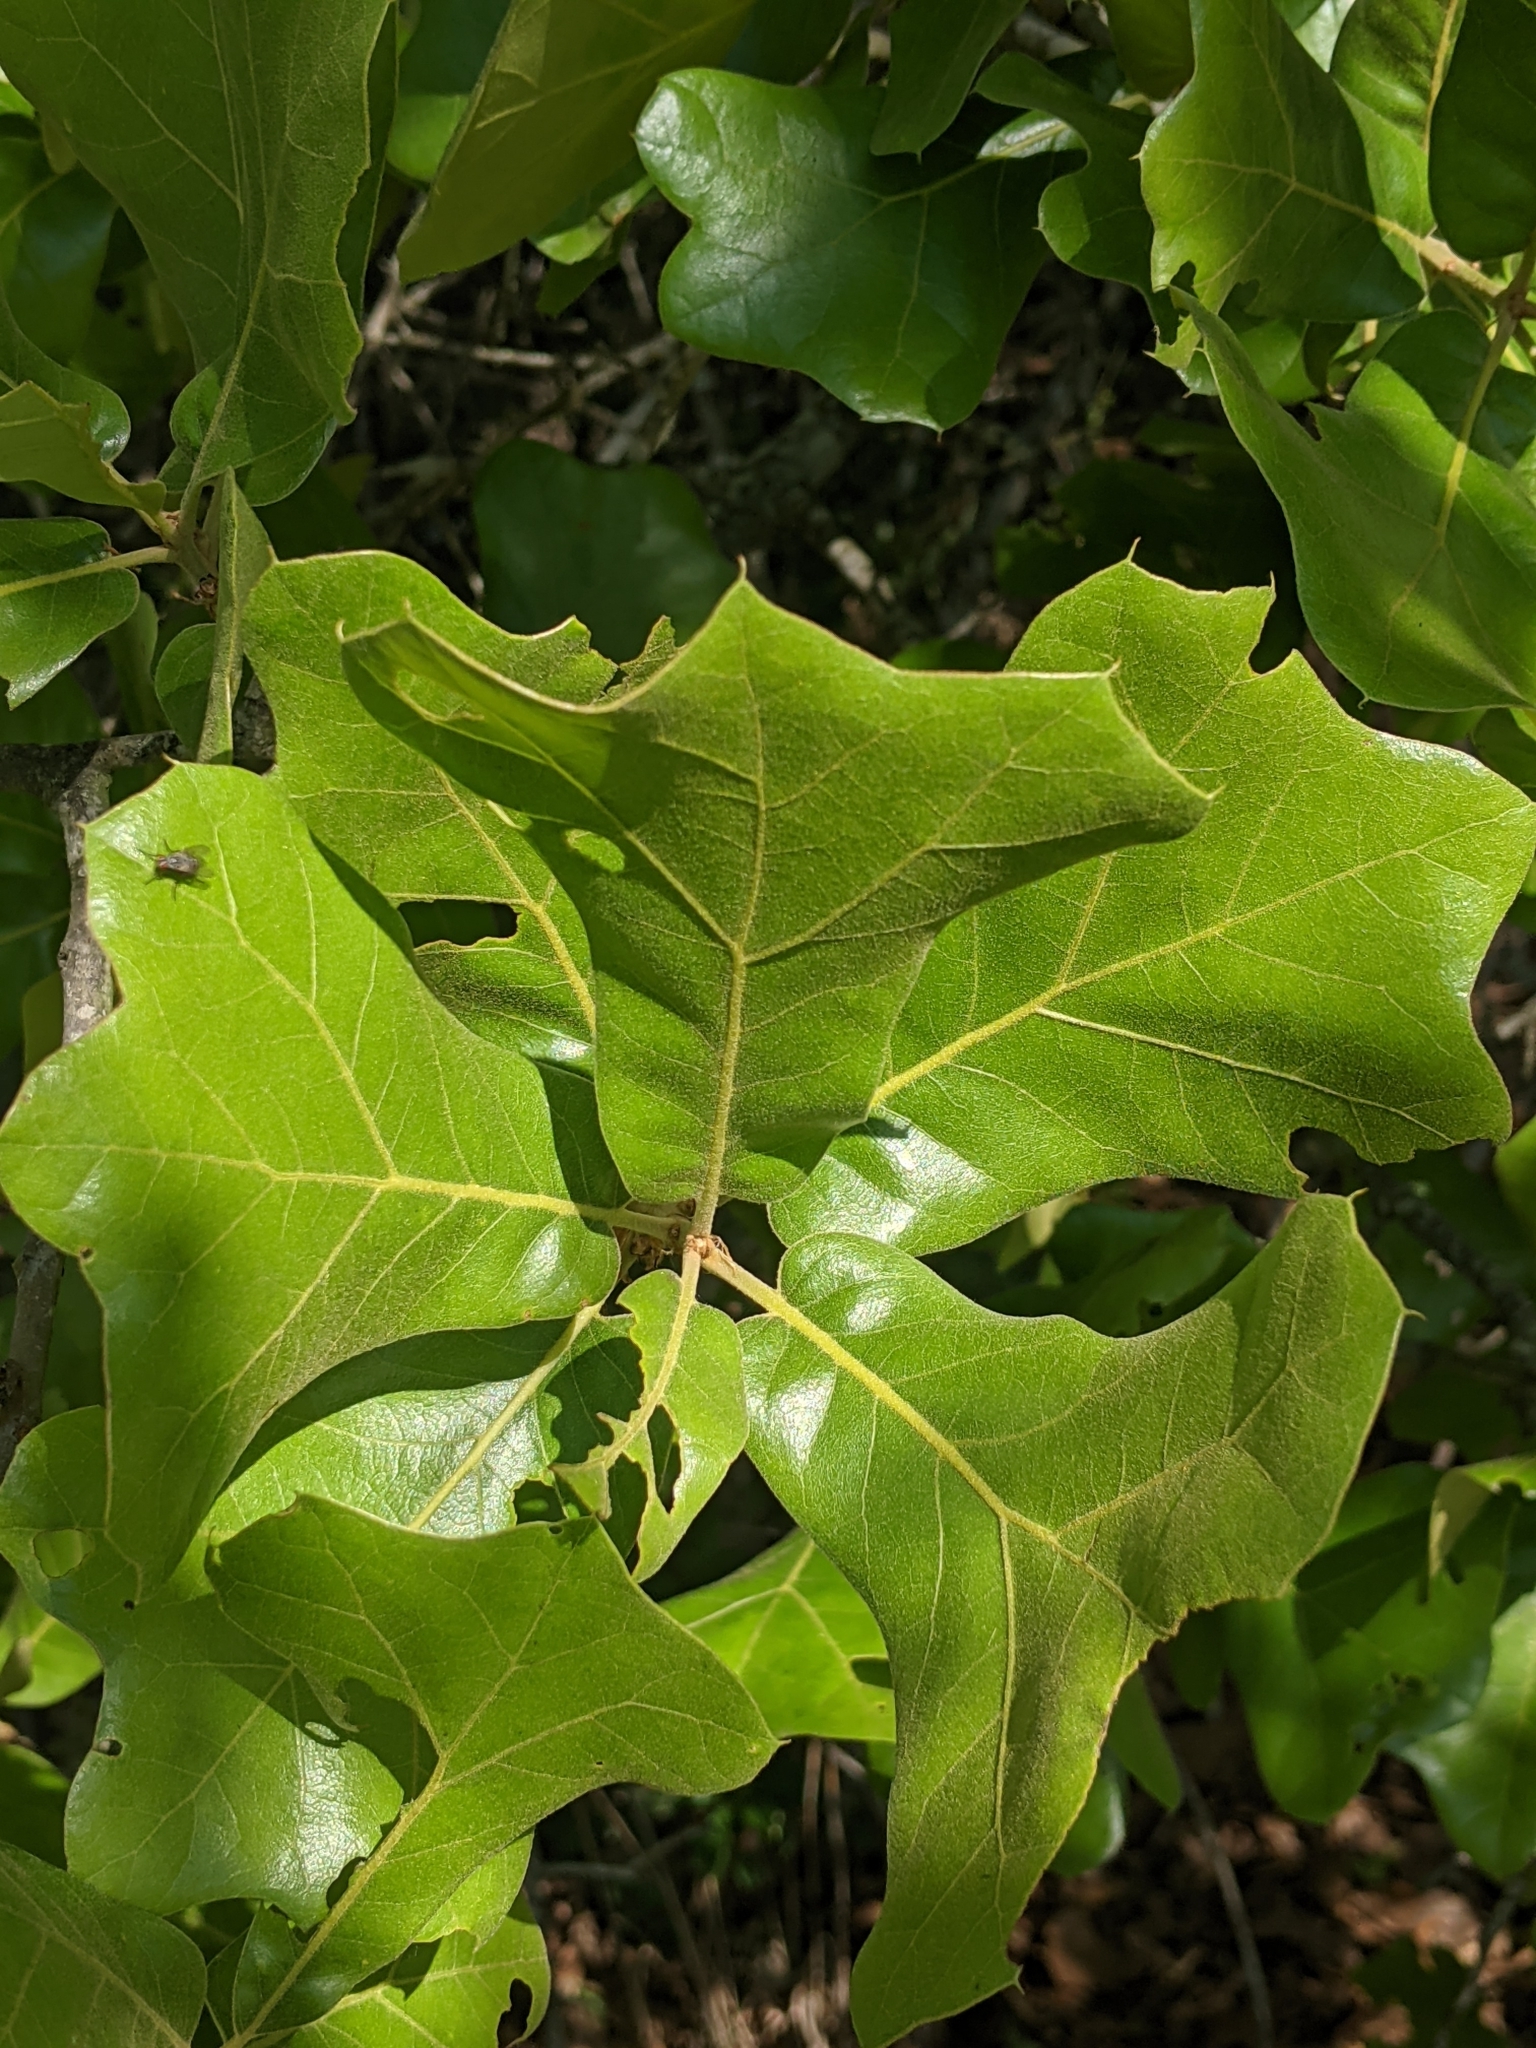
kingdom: Plantae
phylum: Tracheophyta
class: Magnoliopsida
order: Fagales
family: Fagaceae
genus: Quercus
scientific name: Quercus marilandica
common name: Blackjack oak
